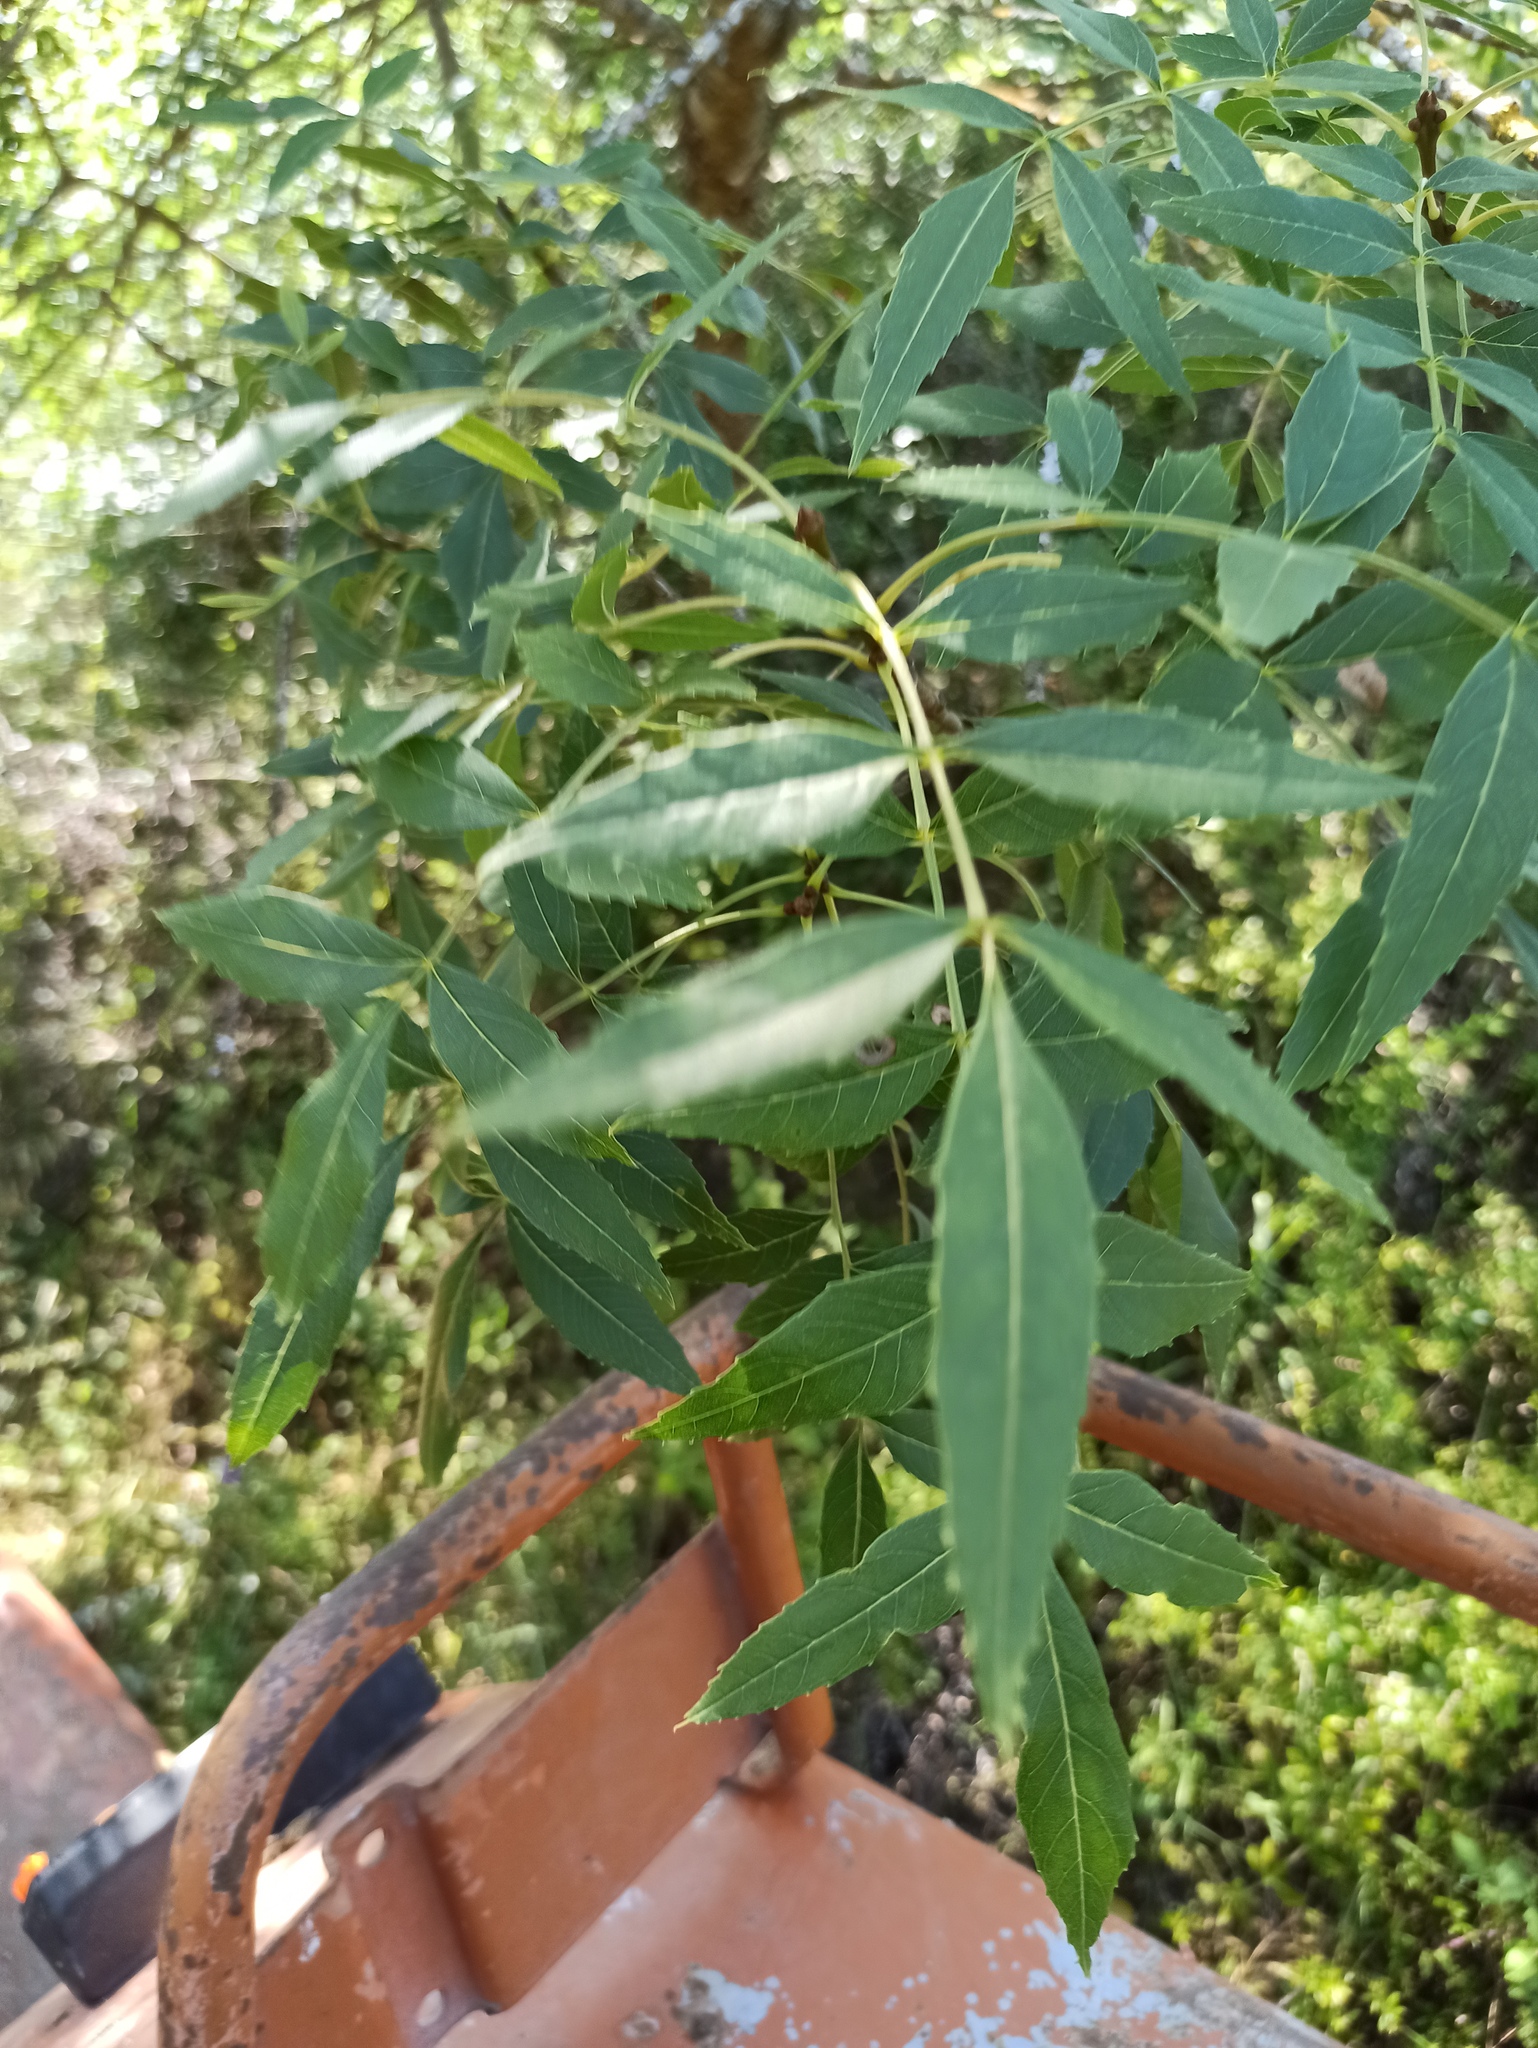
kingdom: Plantae
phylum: Tracheophyta
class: Magnoliopsida
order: Lamiales
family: Oleaceae
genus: Fraxinus
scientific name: Fraxinus angustifolia
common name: Narrow-leafed ash
